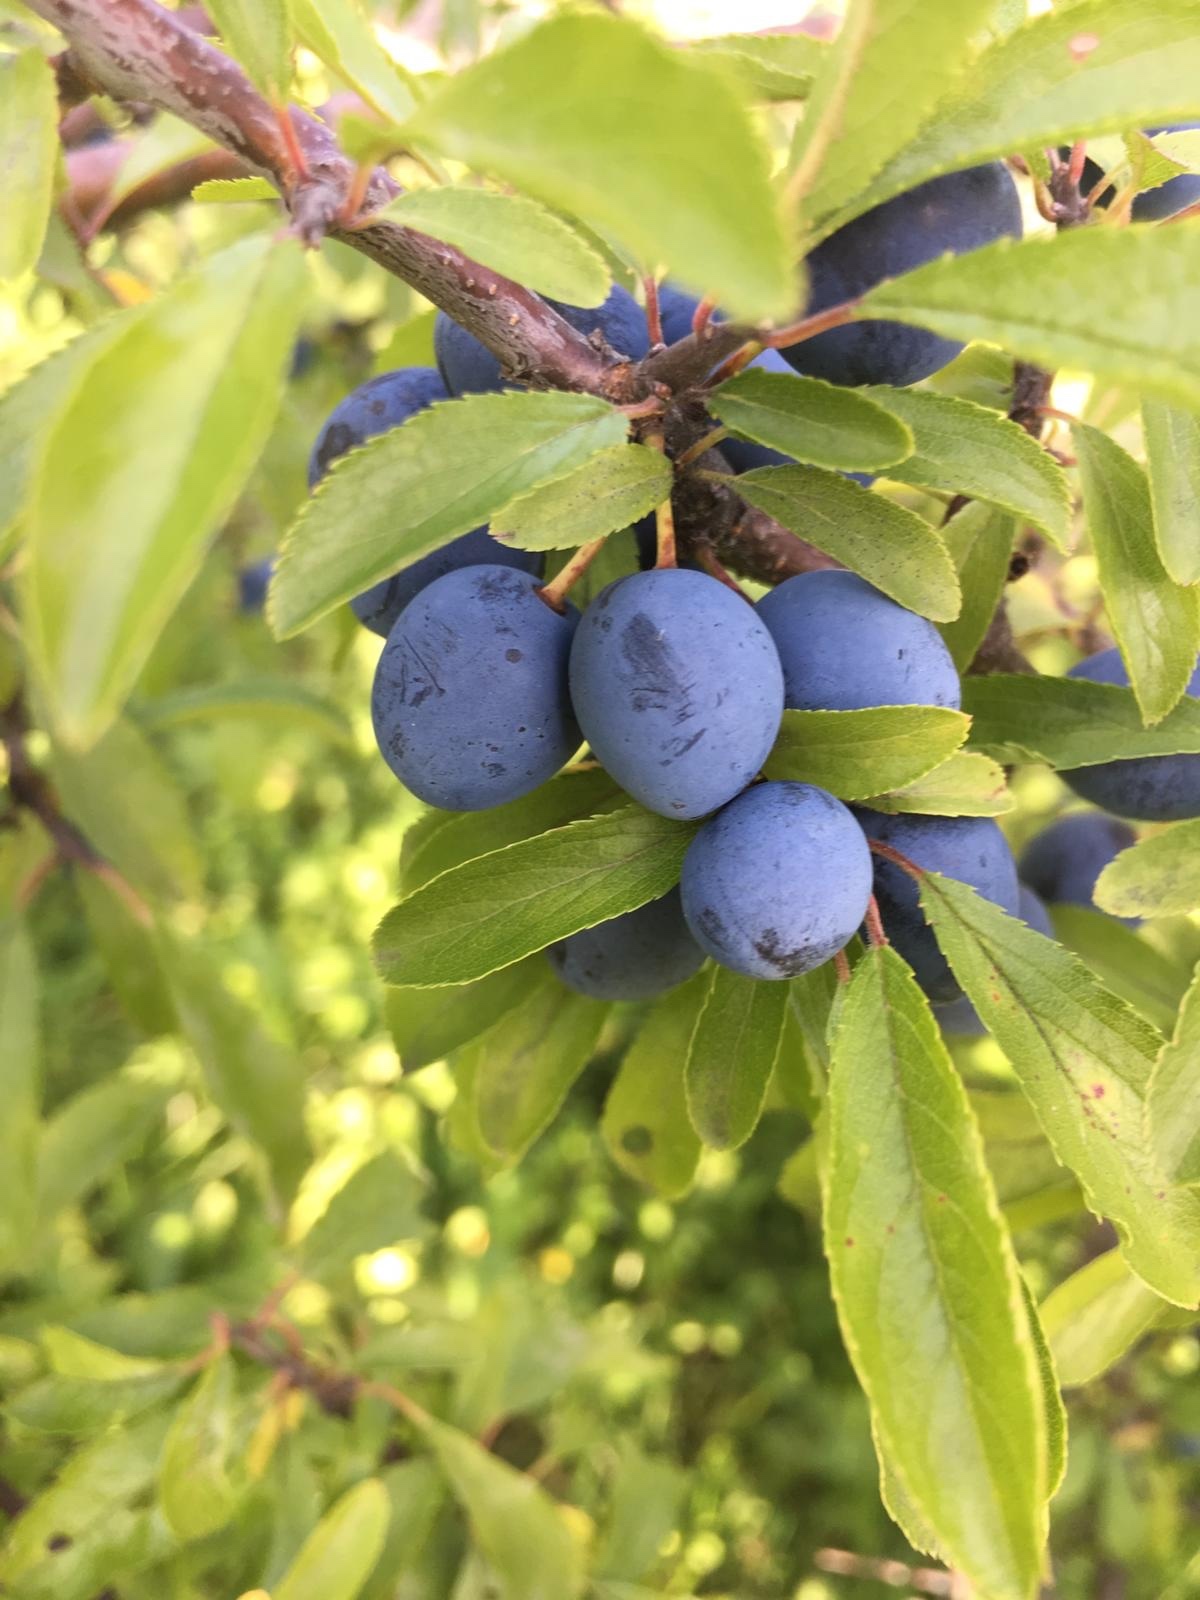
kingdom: Plantae
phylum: Tracheophyta
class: Magnoliopsida
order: Rosales
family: Rosaceae
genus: Prunus
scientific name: Prunus spinosa
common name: Blackthorn
